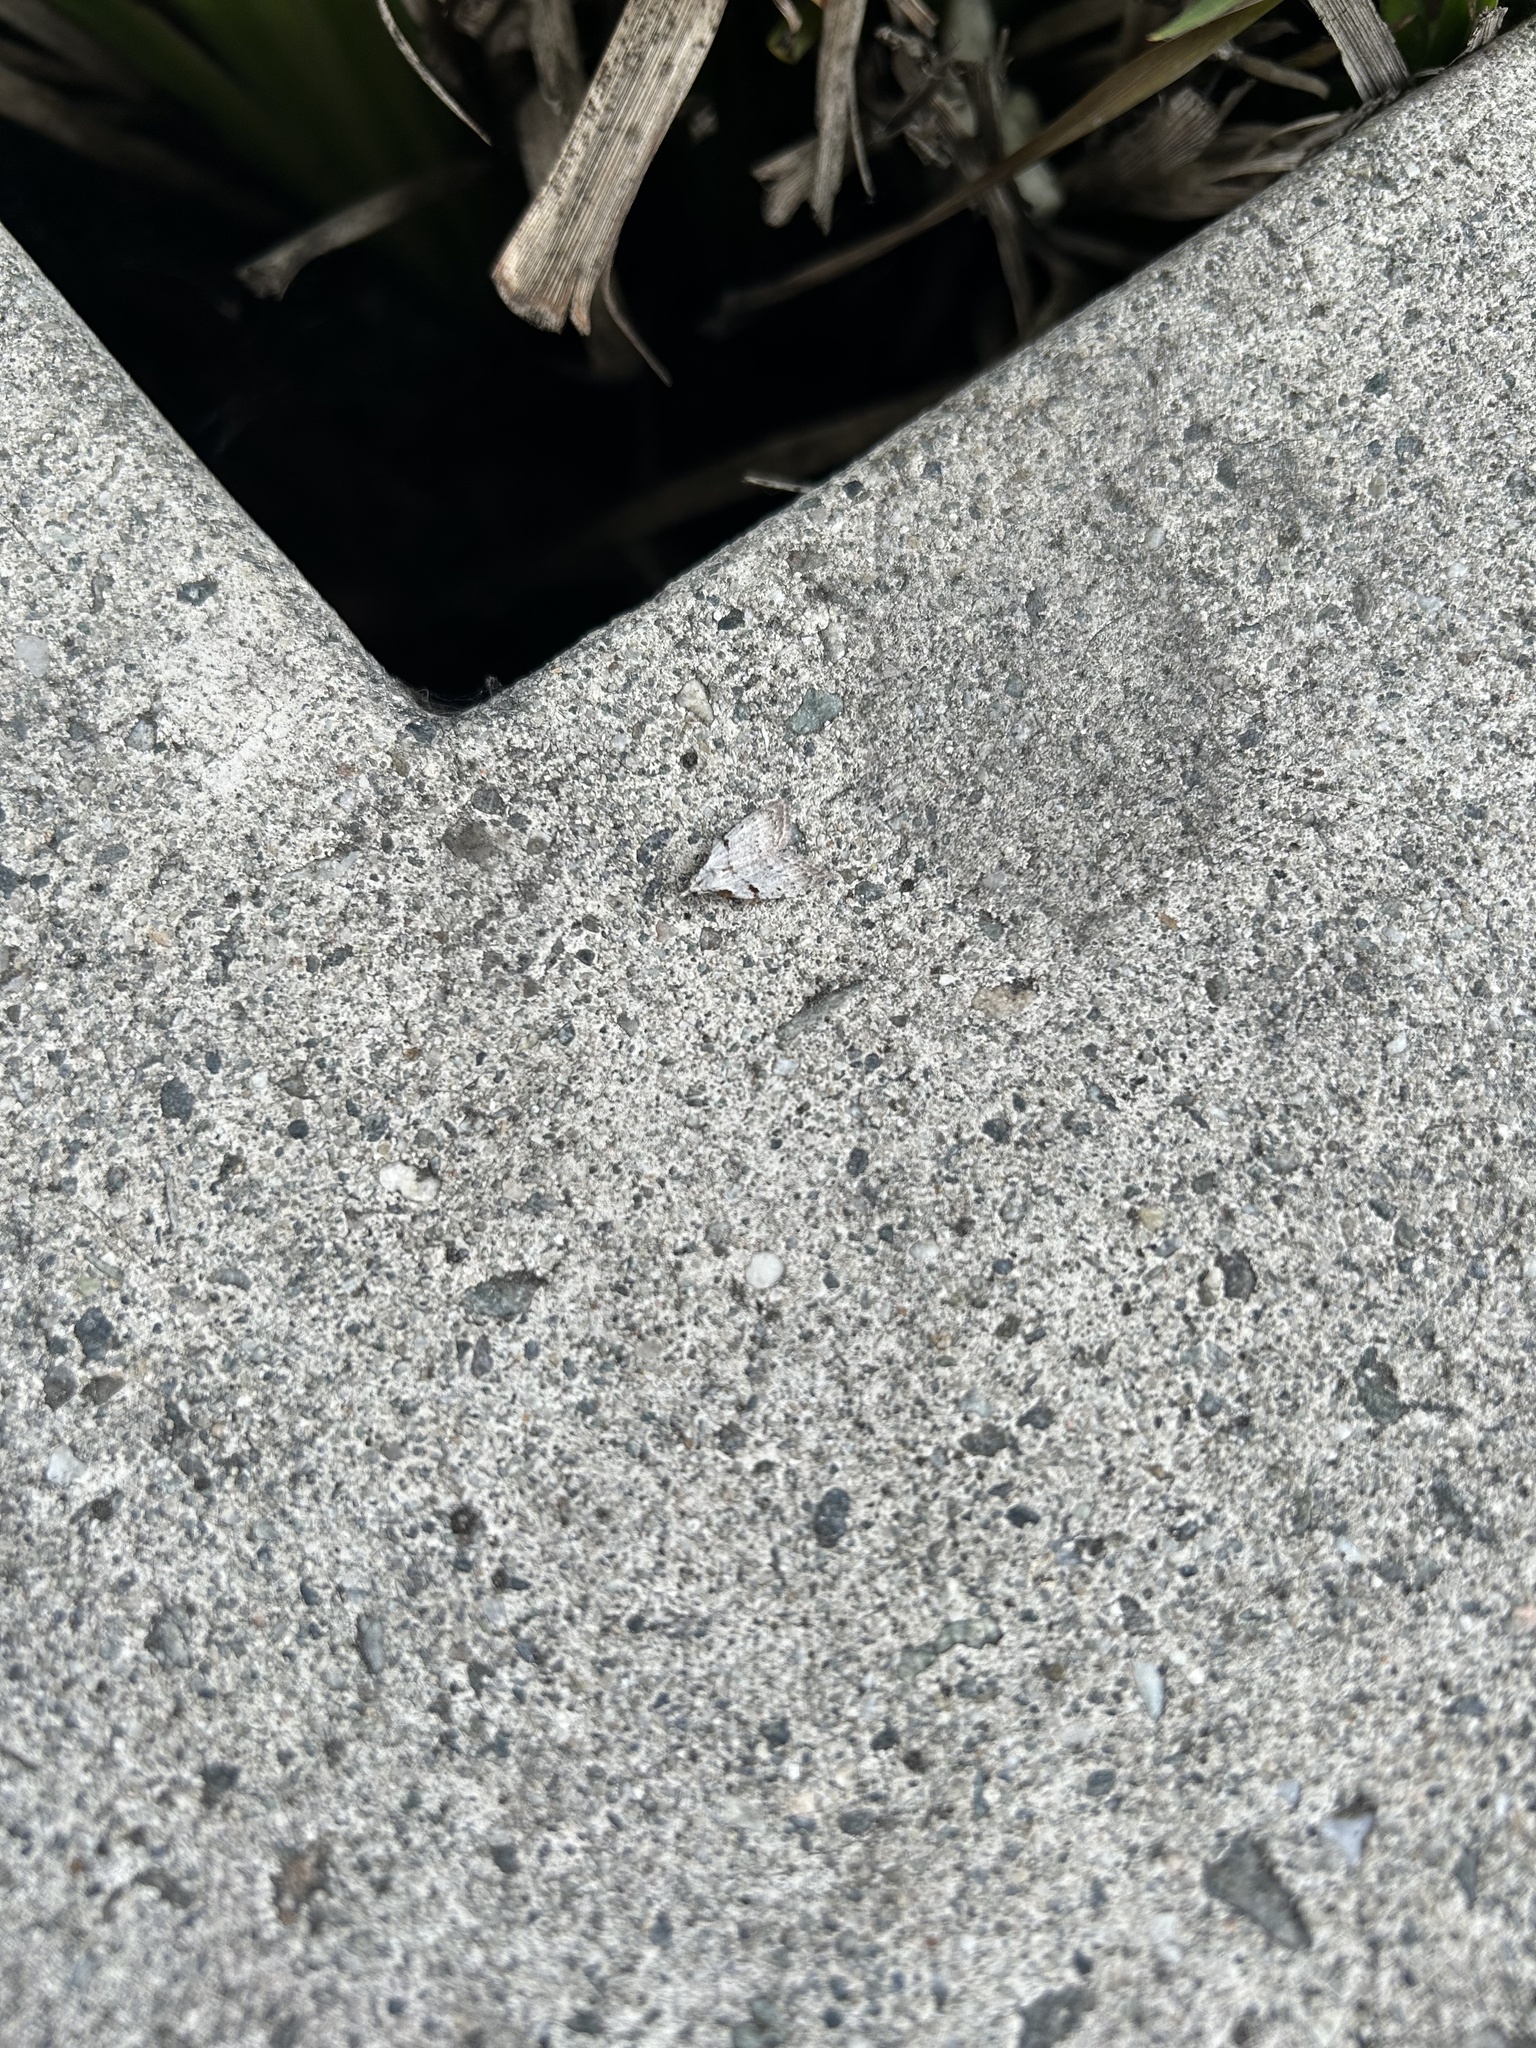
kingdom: Animalia
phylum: Arthropoda
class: Insecta
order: Lepidoptera
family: Nolidae
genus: Nola
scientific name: Nola minna
